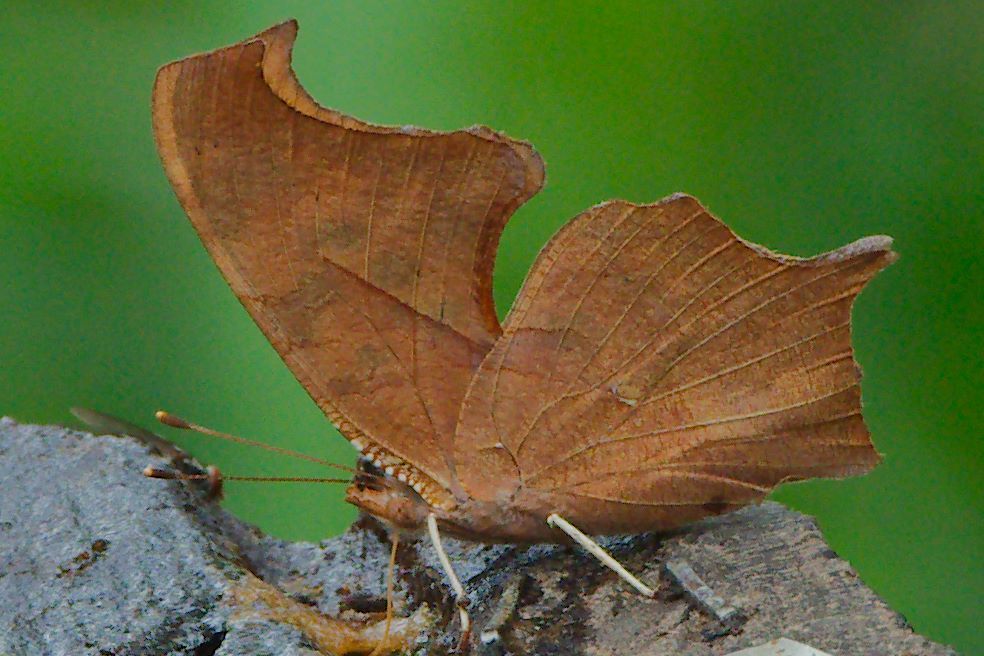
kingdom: Animalia
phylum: Arthropoda
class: Insecta
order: Lepidoptera
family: Nymphalidae
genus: Polygonia
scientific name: Polygonia interrogationis
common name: Question mark
